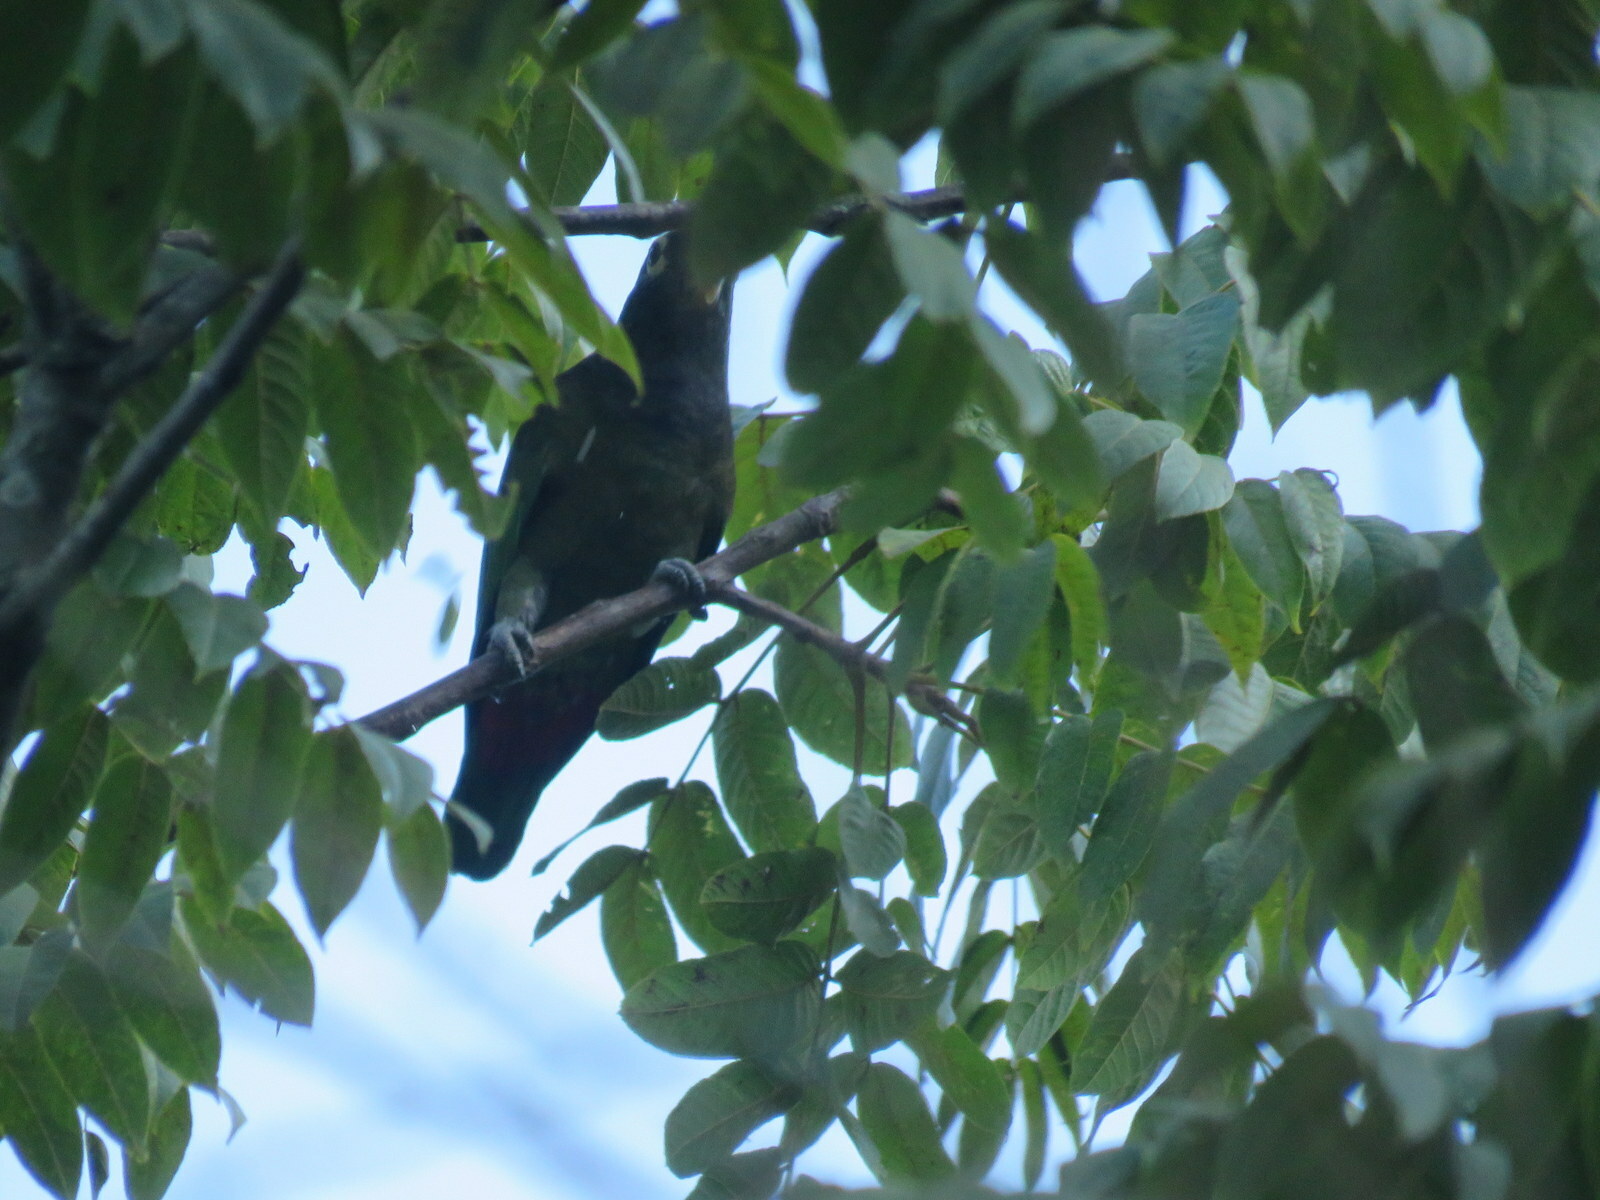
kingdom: Animalia
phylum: Chordata
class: Aves
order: Psittaciformes
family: Psittacidae
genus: Pionus
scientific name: Pionus maximiliani
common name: Scaly-headed parrot
